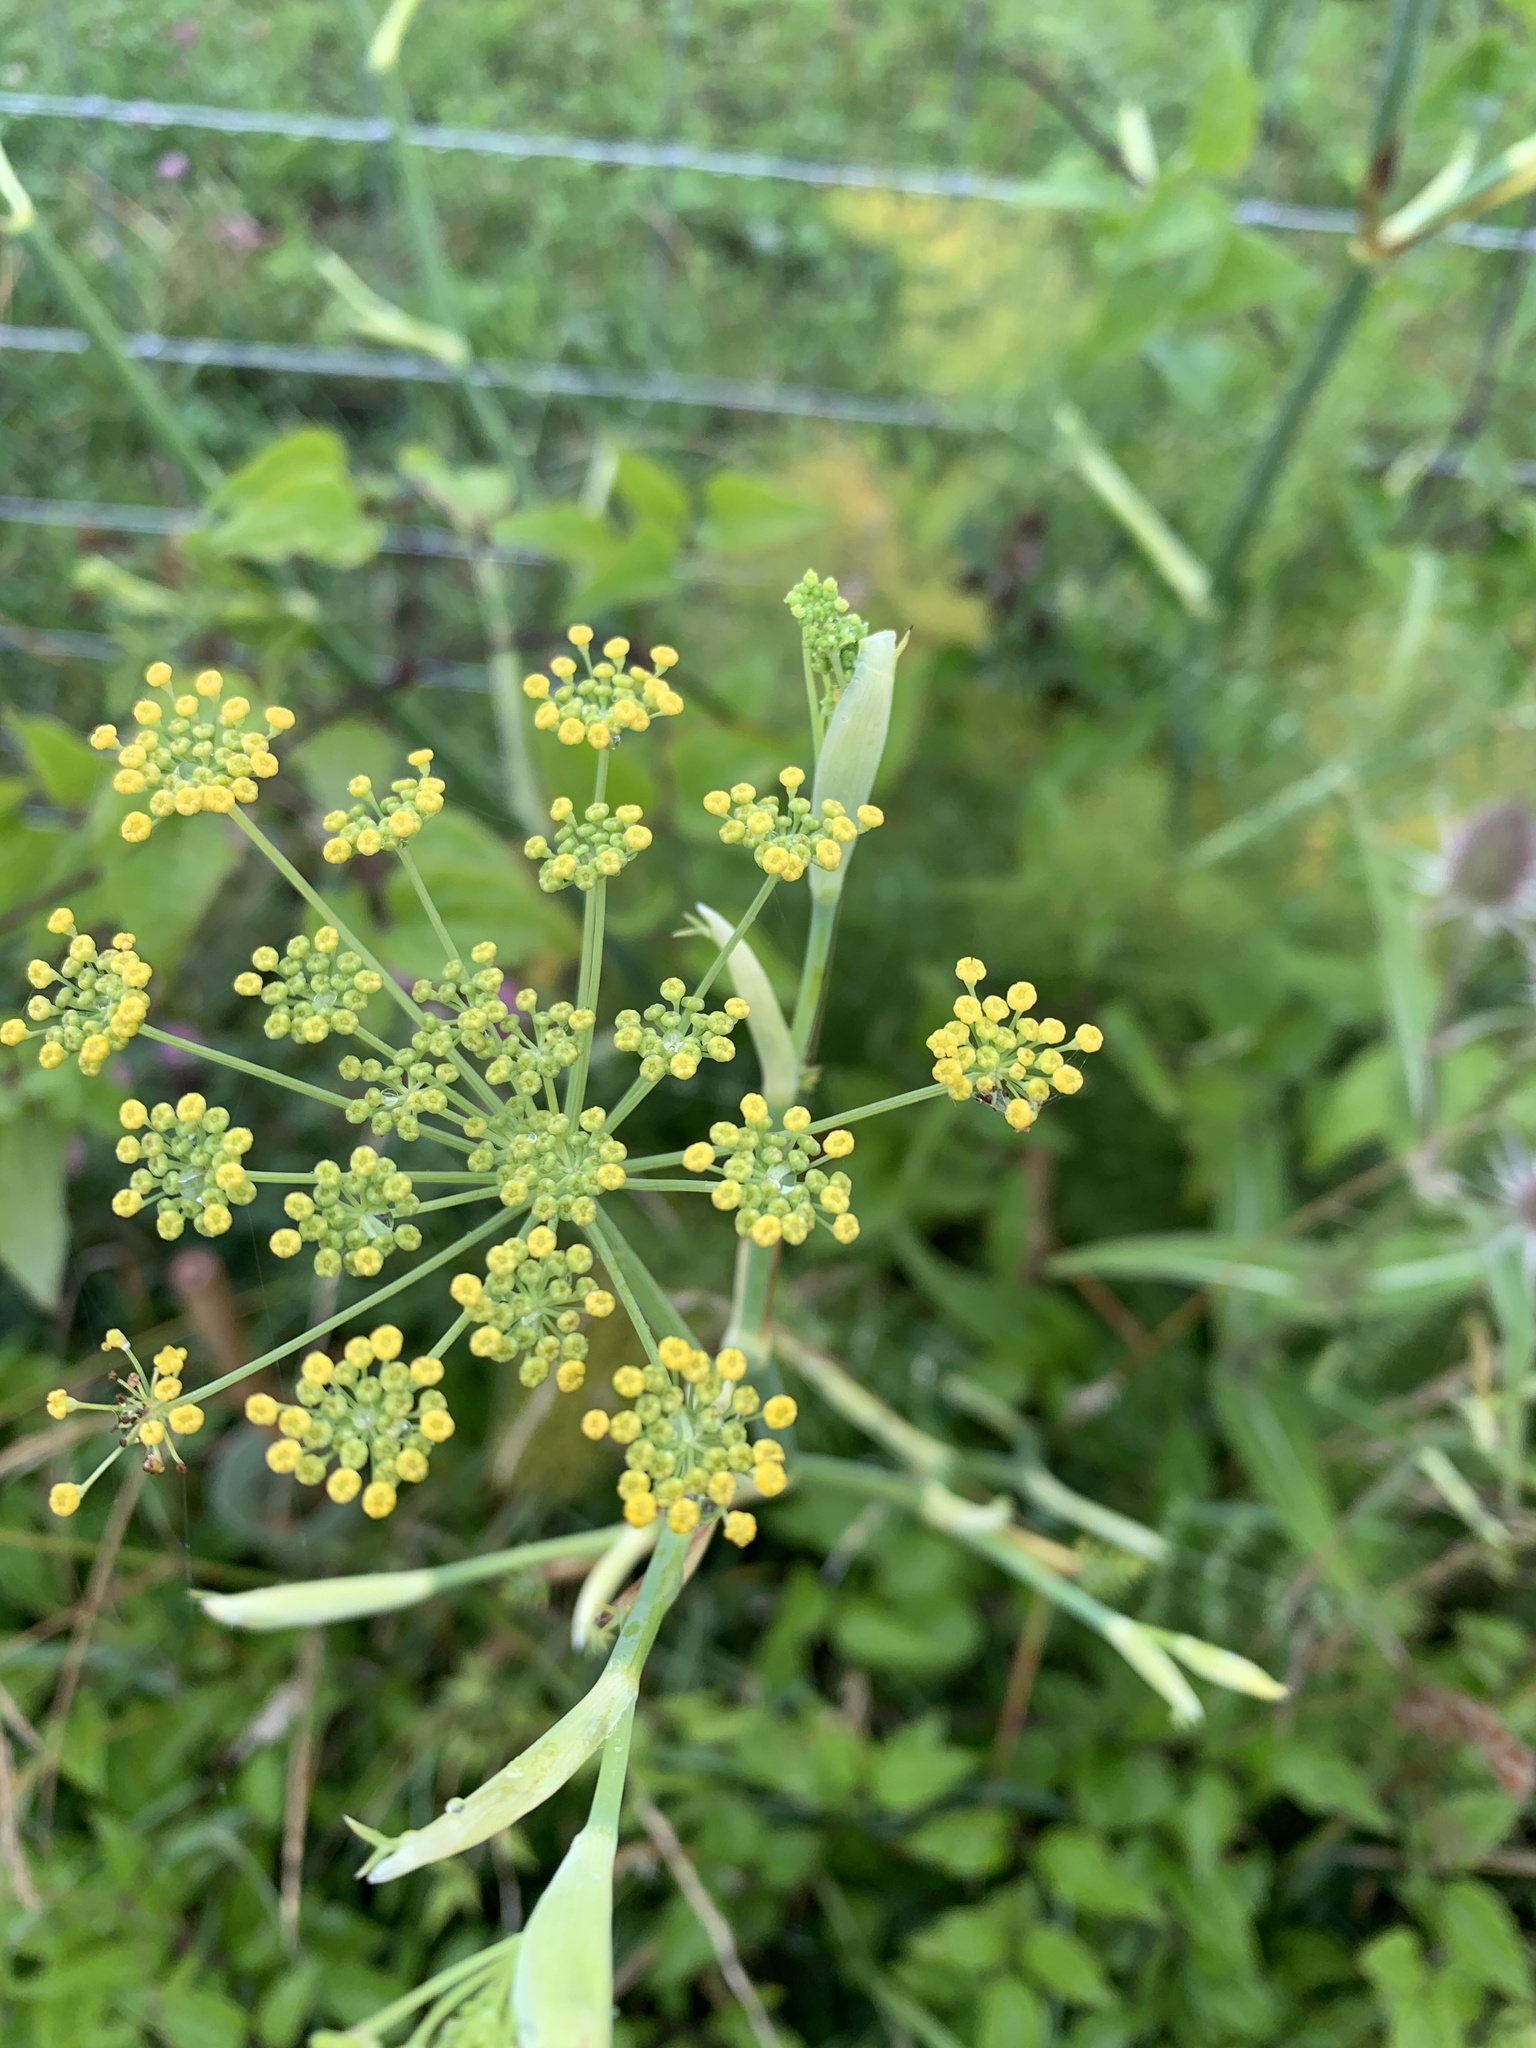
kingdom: Plantae
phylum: Tracheophyta
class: Magnoliopsida
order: Apiales
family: Apiaceae
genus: Foeniculum
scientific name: Foeniculum vulgare
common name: Fennel
